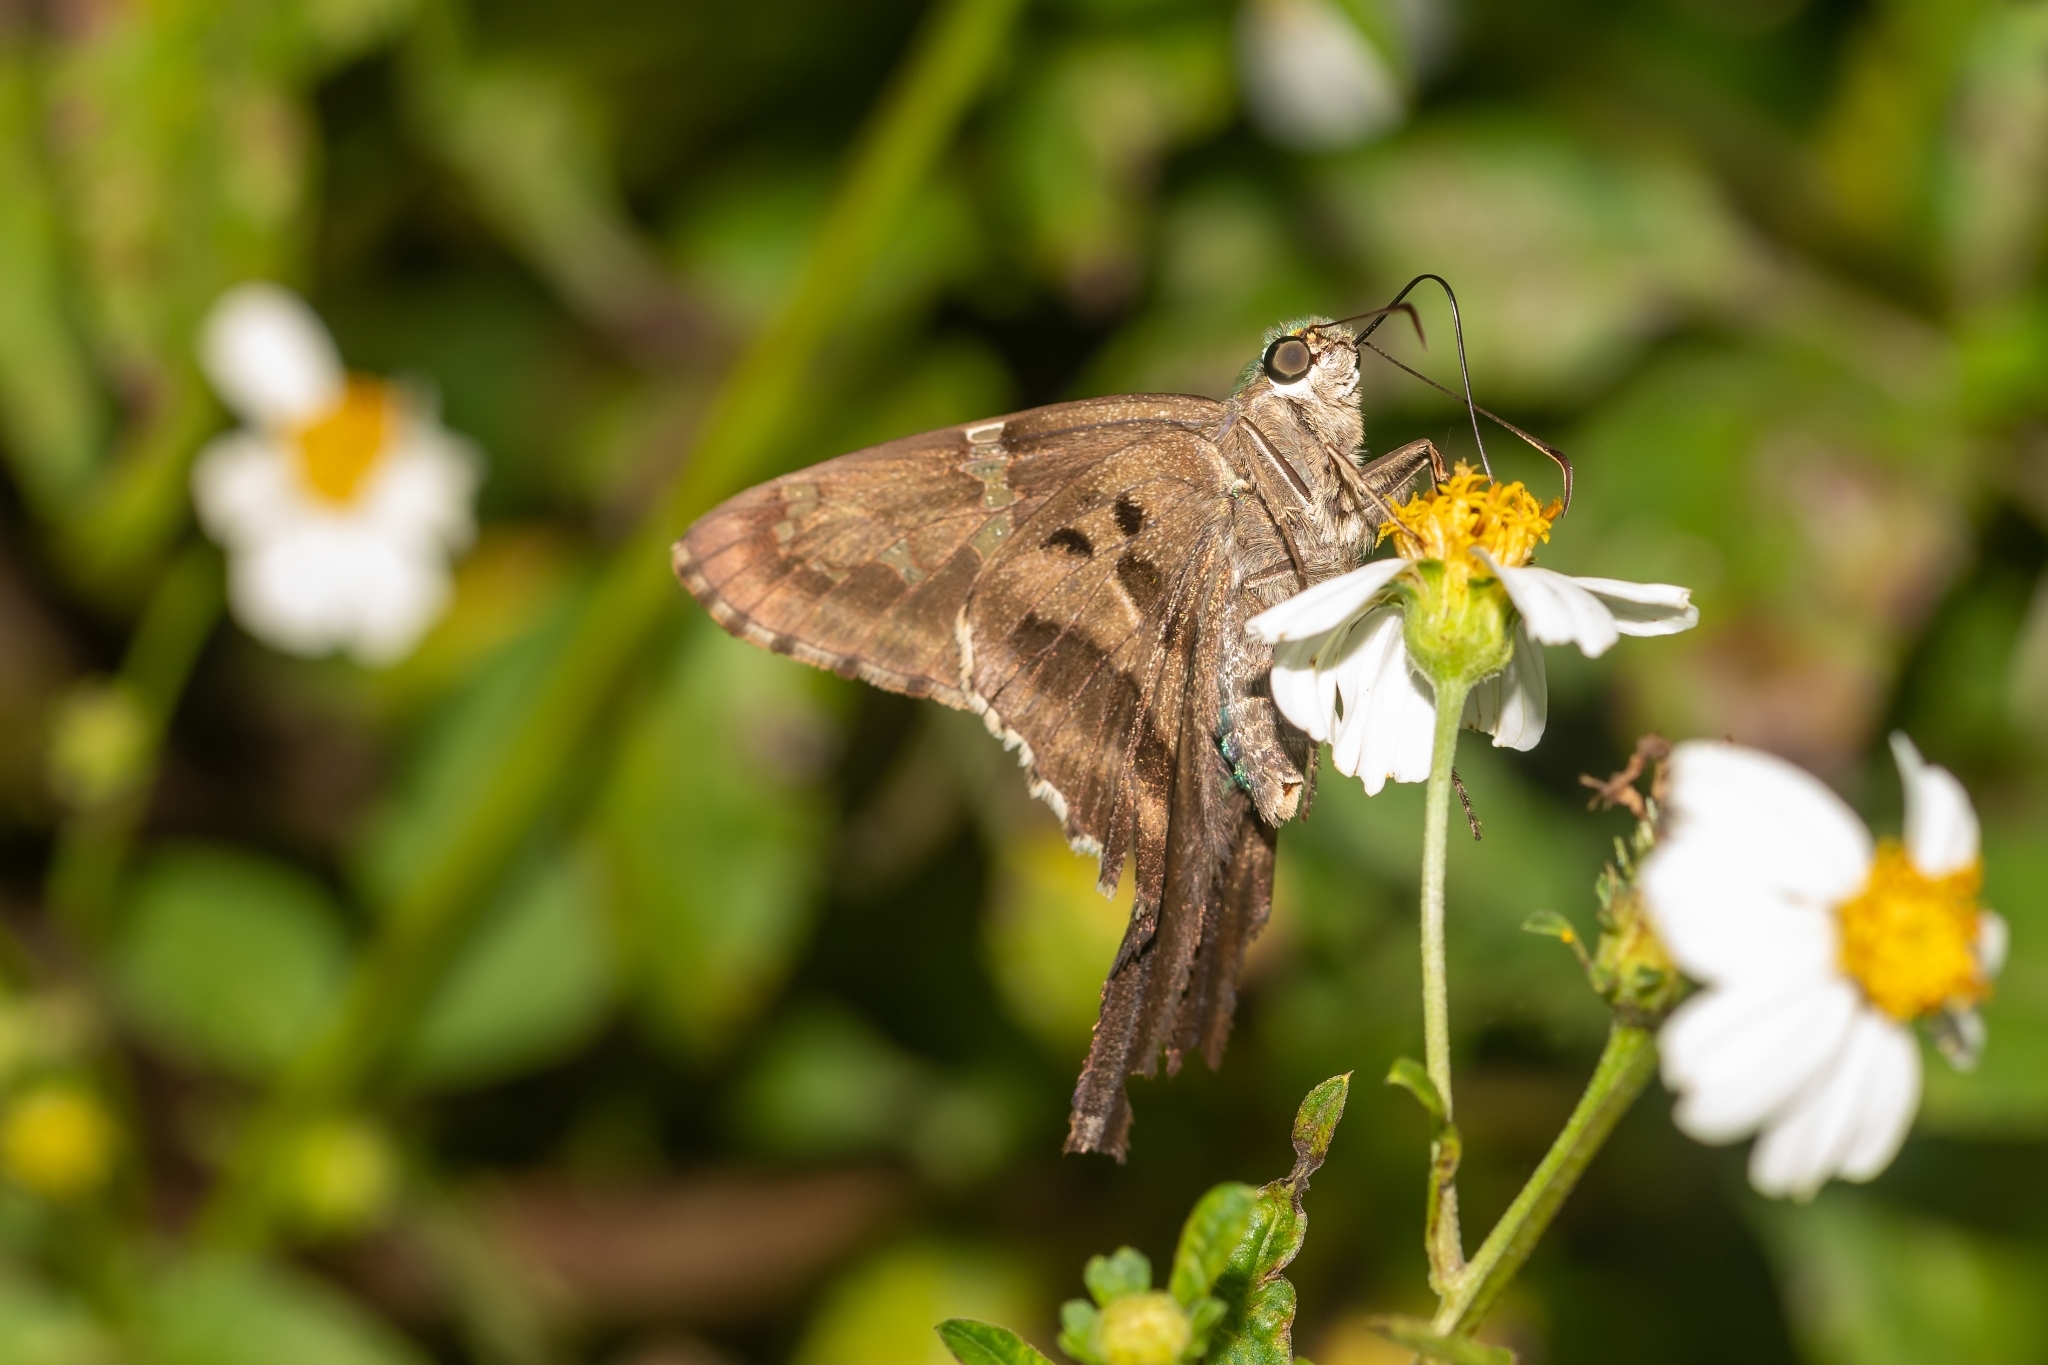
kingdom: Animalia
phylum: Arthropoda
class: Insecta
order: Lepidoptera
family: Hesperiidae
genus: Urbanus
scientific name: Urbanus proteus
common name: Long-tailed skipper
